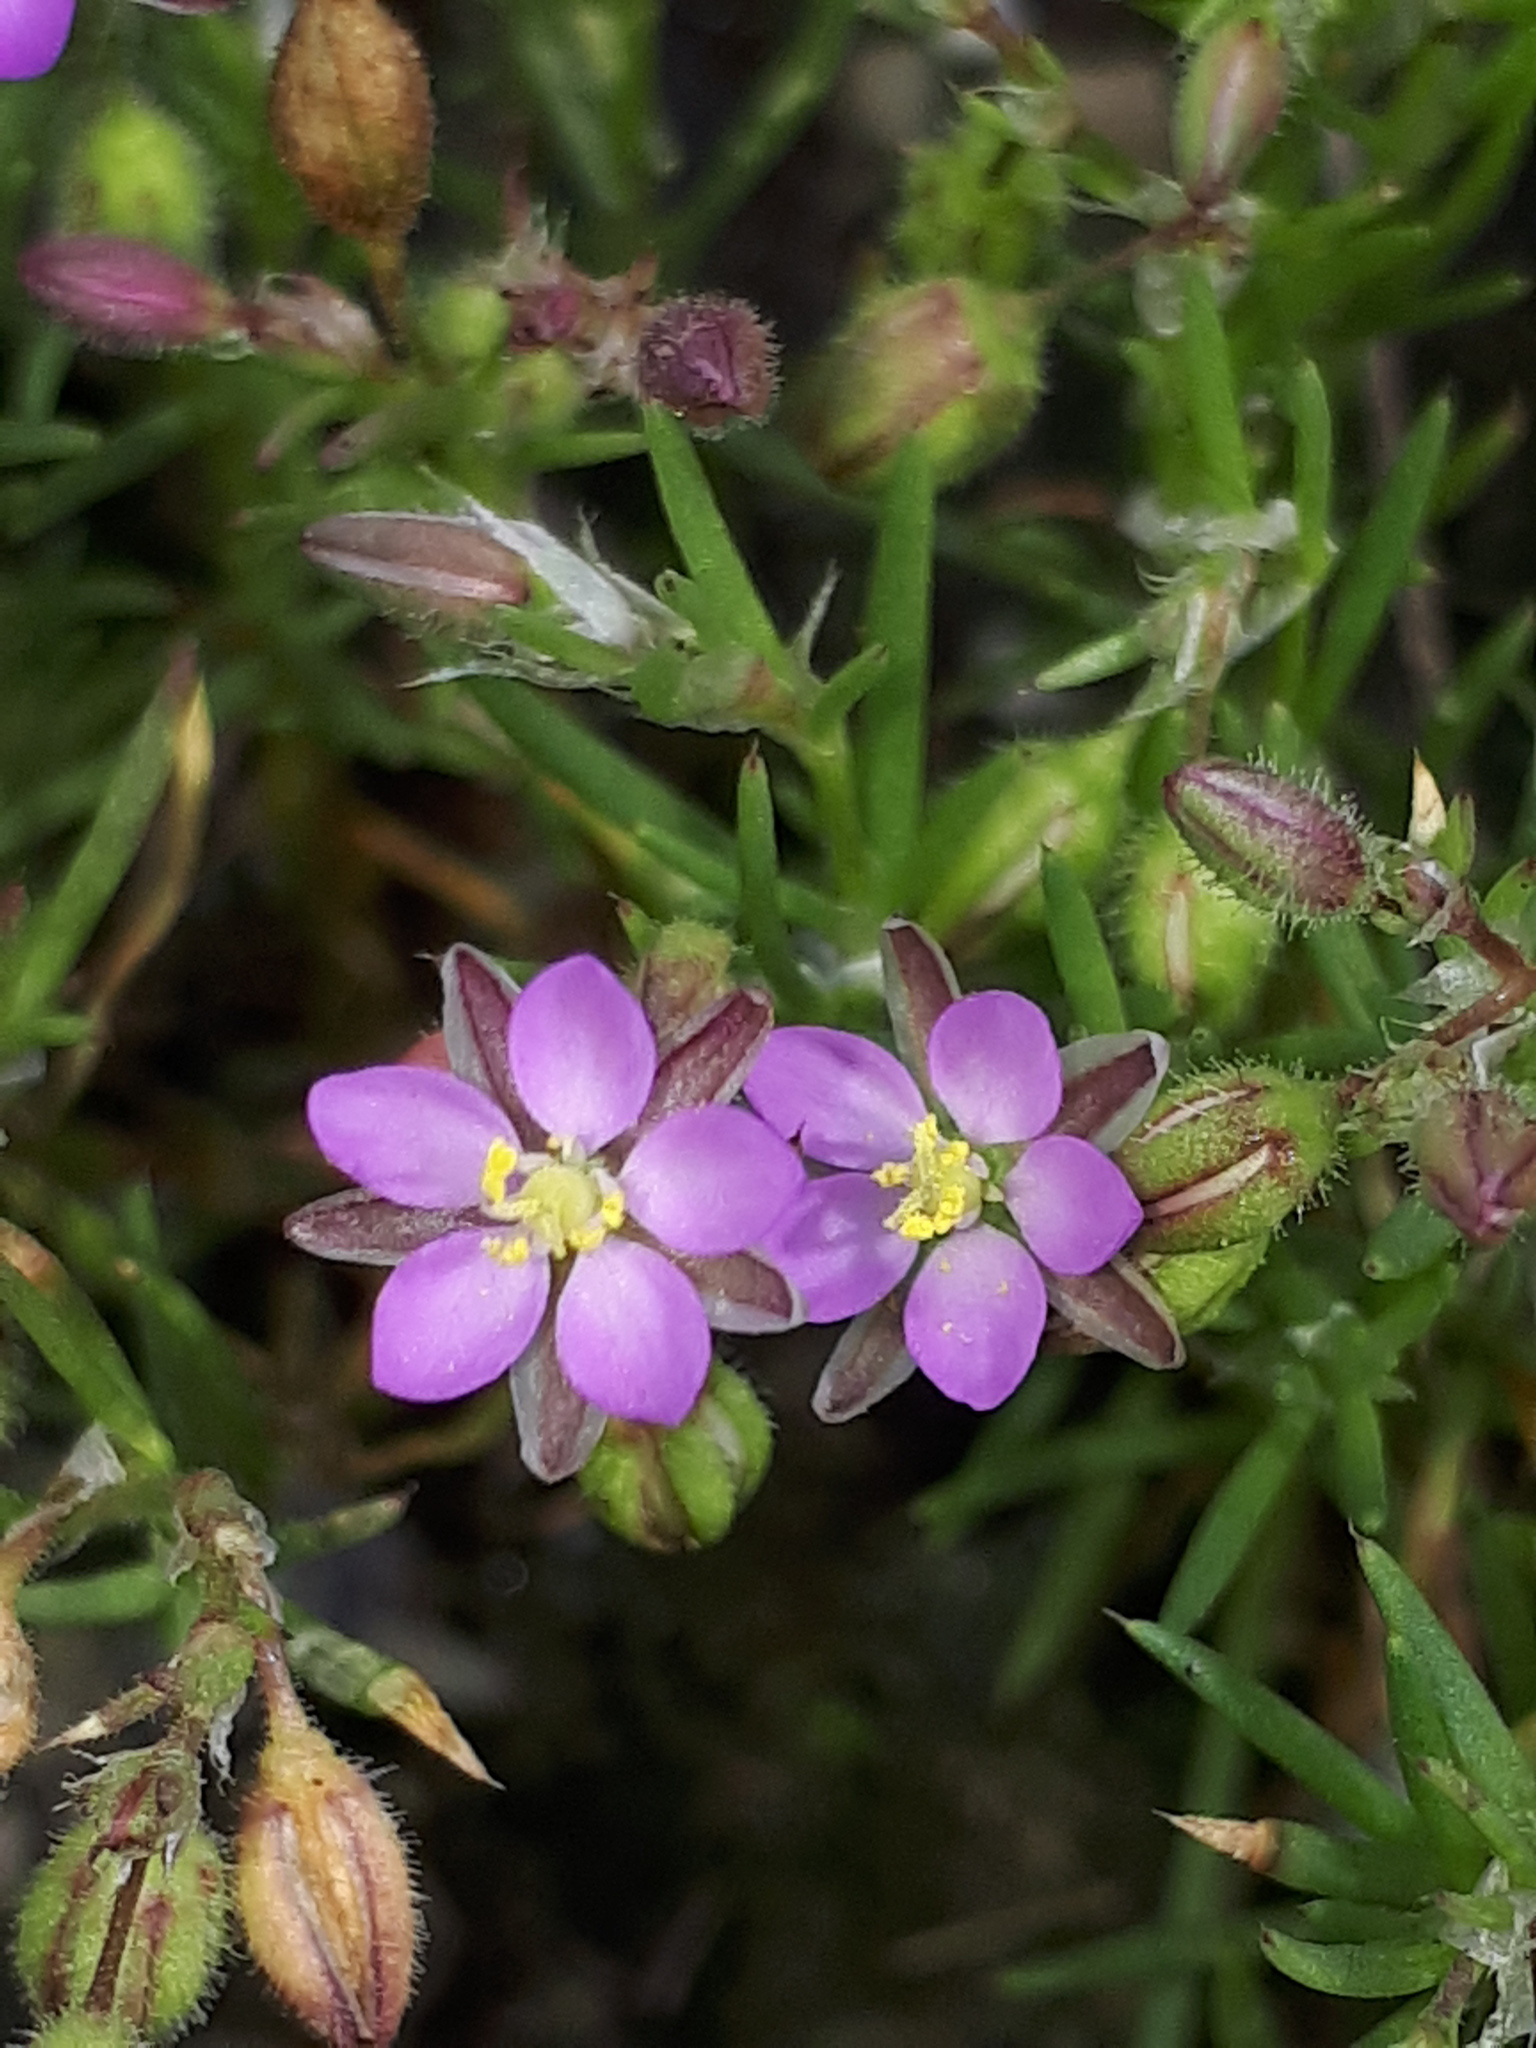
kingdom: Plantae
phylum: Tracheophyta
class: Magnoliopsida
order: Caryophyllales
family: Caryophyllaceae
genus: Spergularia
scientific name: Spergularia rubra
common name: Red sand-spurrey
